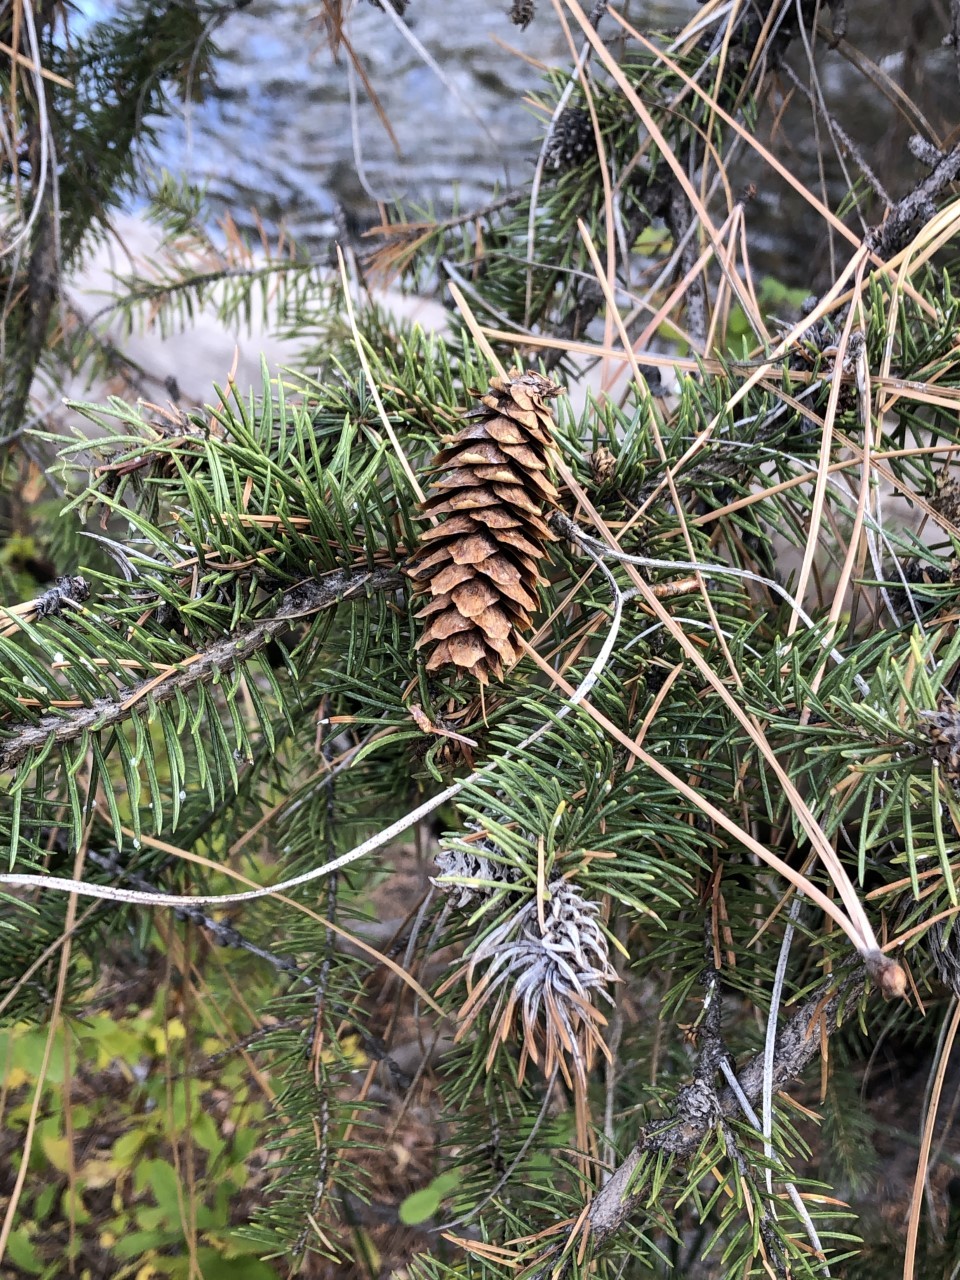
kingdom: Plantae
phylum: Tracheophyta
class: Pinopsida
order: Pinales
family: Pinaceae
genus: Picea
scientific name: Picea engelmannii
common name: Engelmann spruce
